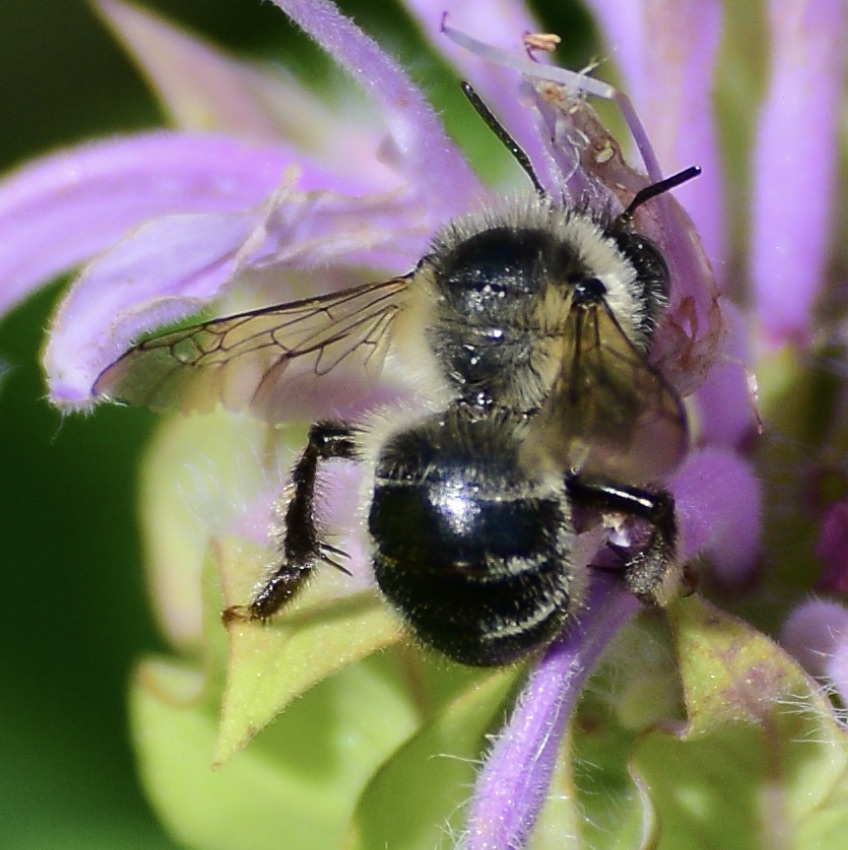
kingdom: Animalia
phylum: Arthropoda
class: Insecta
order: Hymenoptera
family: Apidae
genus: Anthophora
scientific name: Anthophora terminalis
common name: Orange-tipped wood-digger bee
